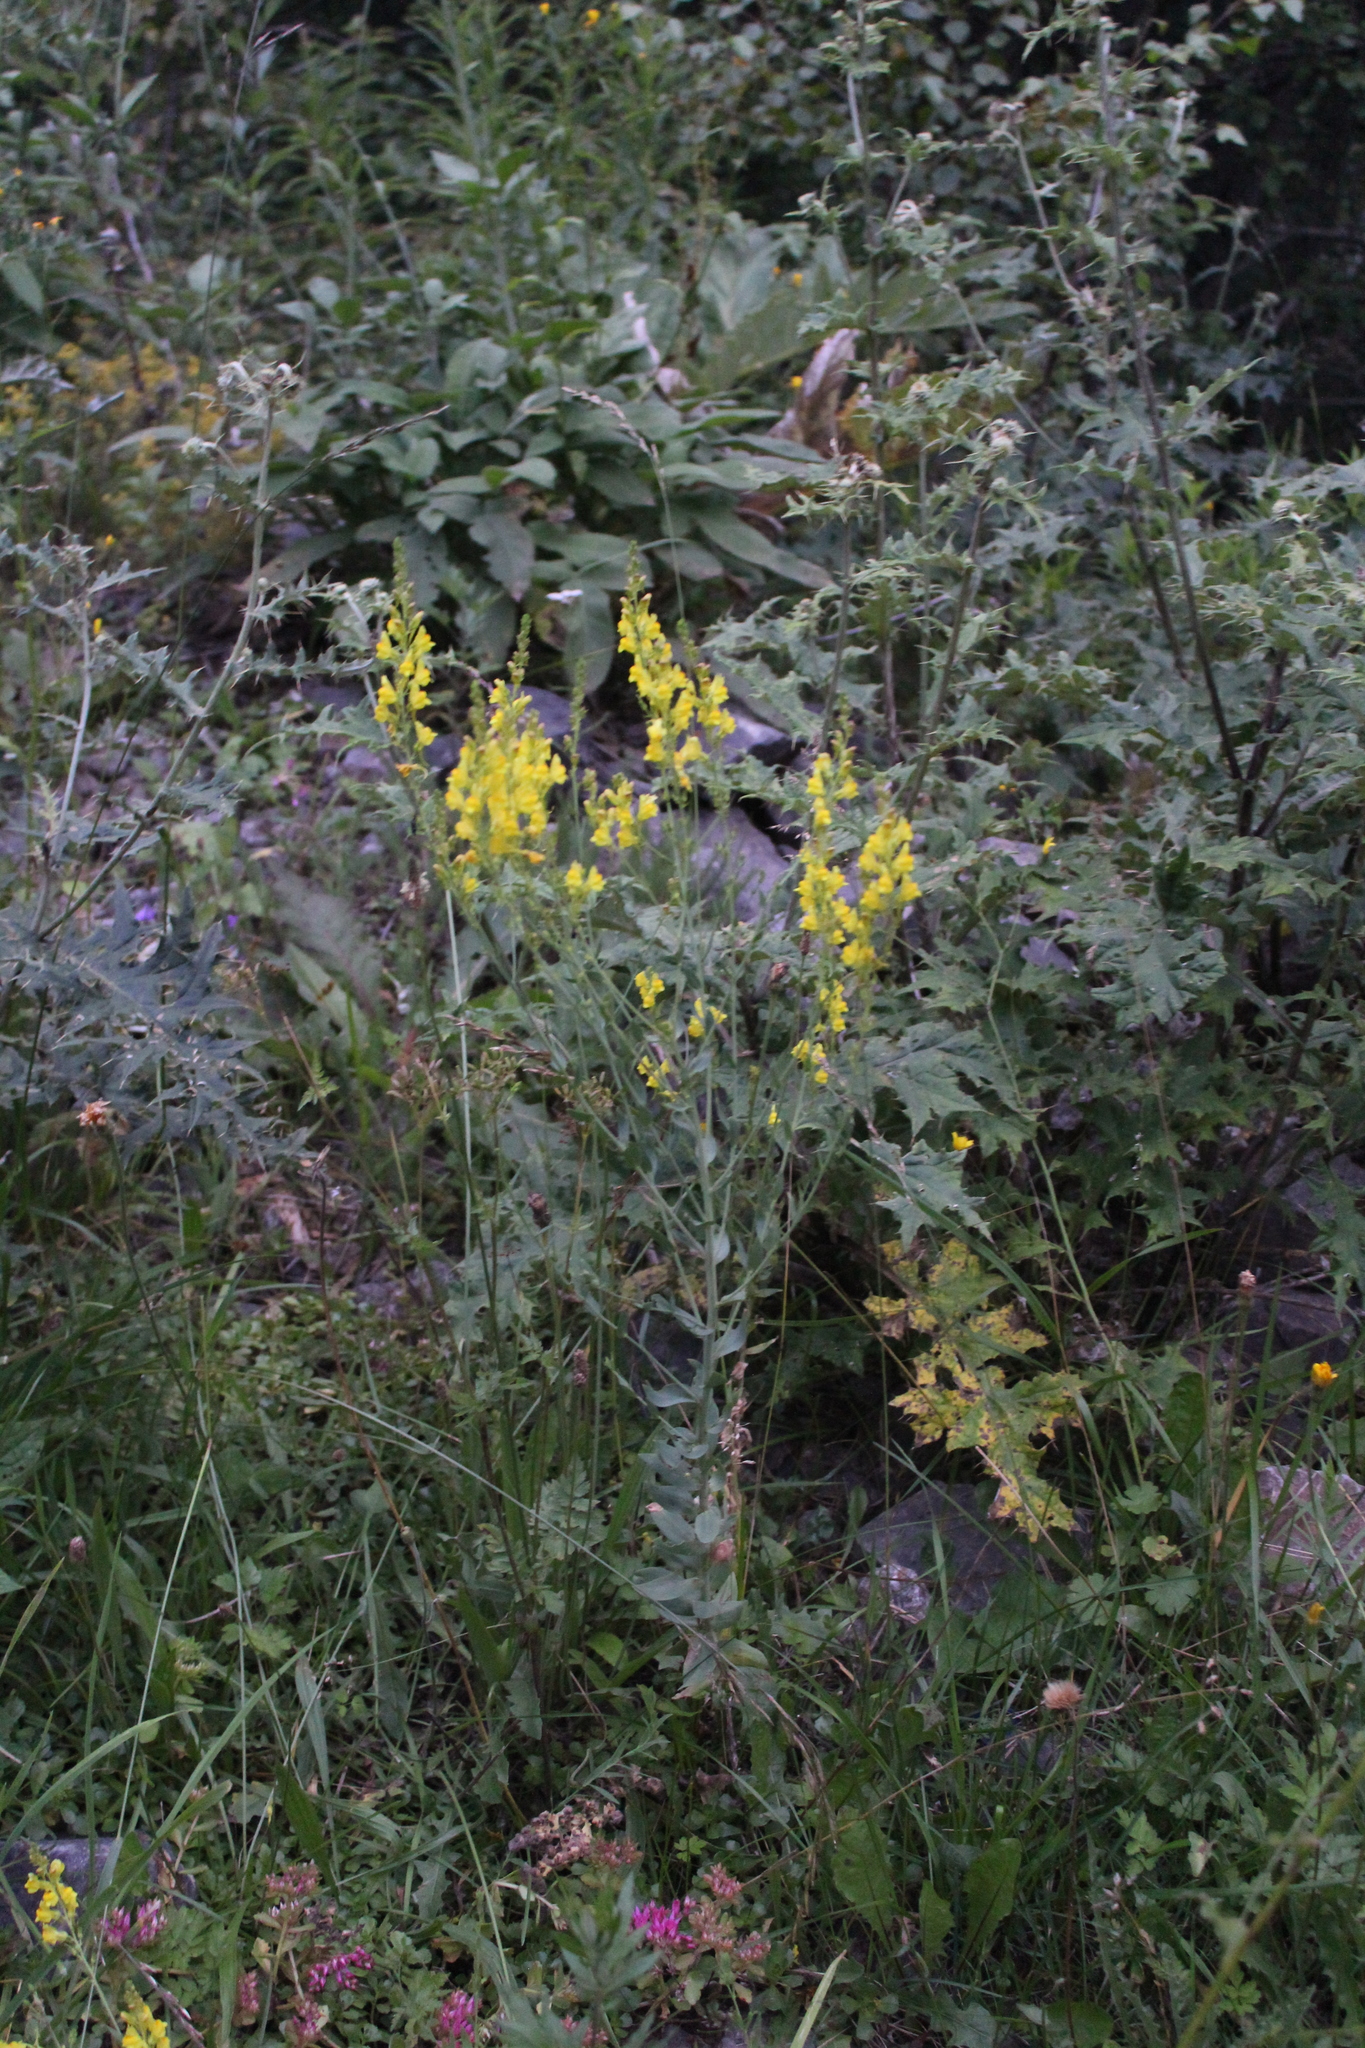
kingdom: Plantae
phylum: Tracheophyta
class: Magnoliopsida
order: Lamiales
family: Plantaginaceae
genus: Linaria
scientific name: Linaria genistifolia
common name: Broomleaf toadflax
